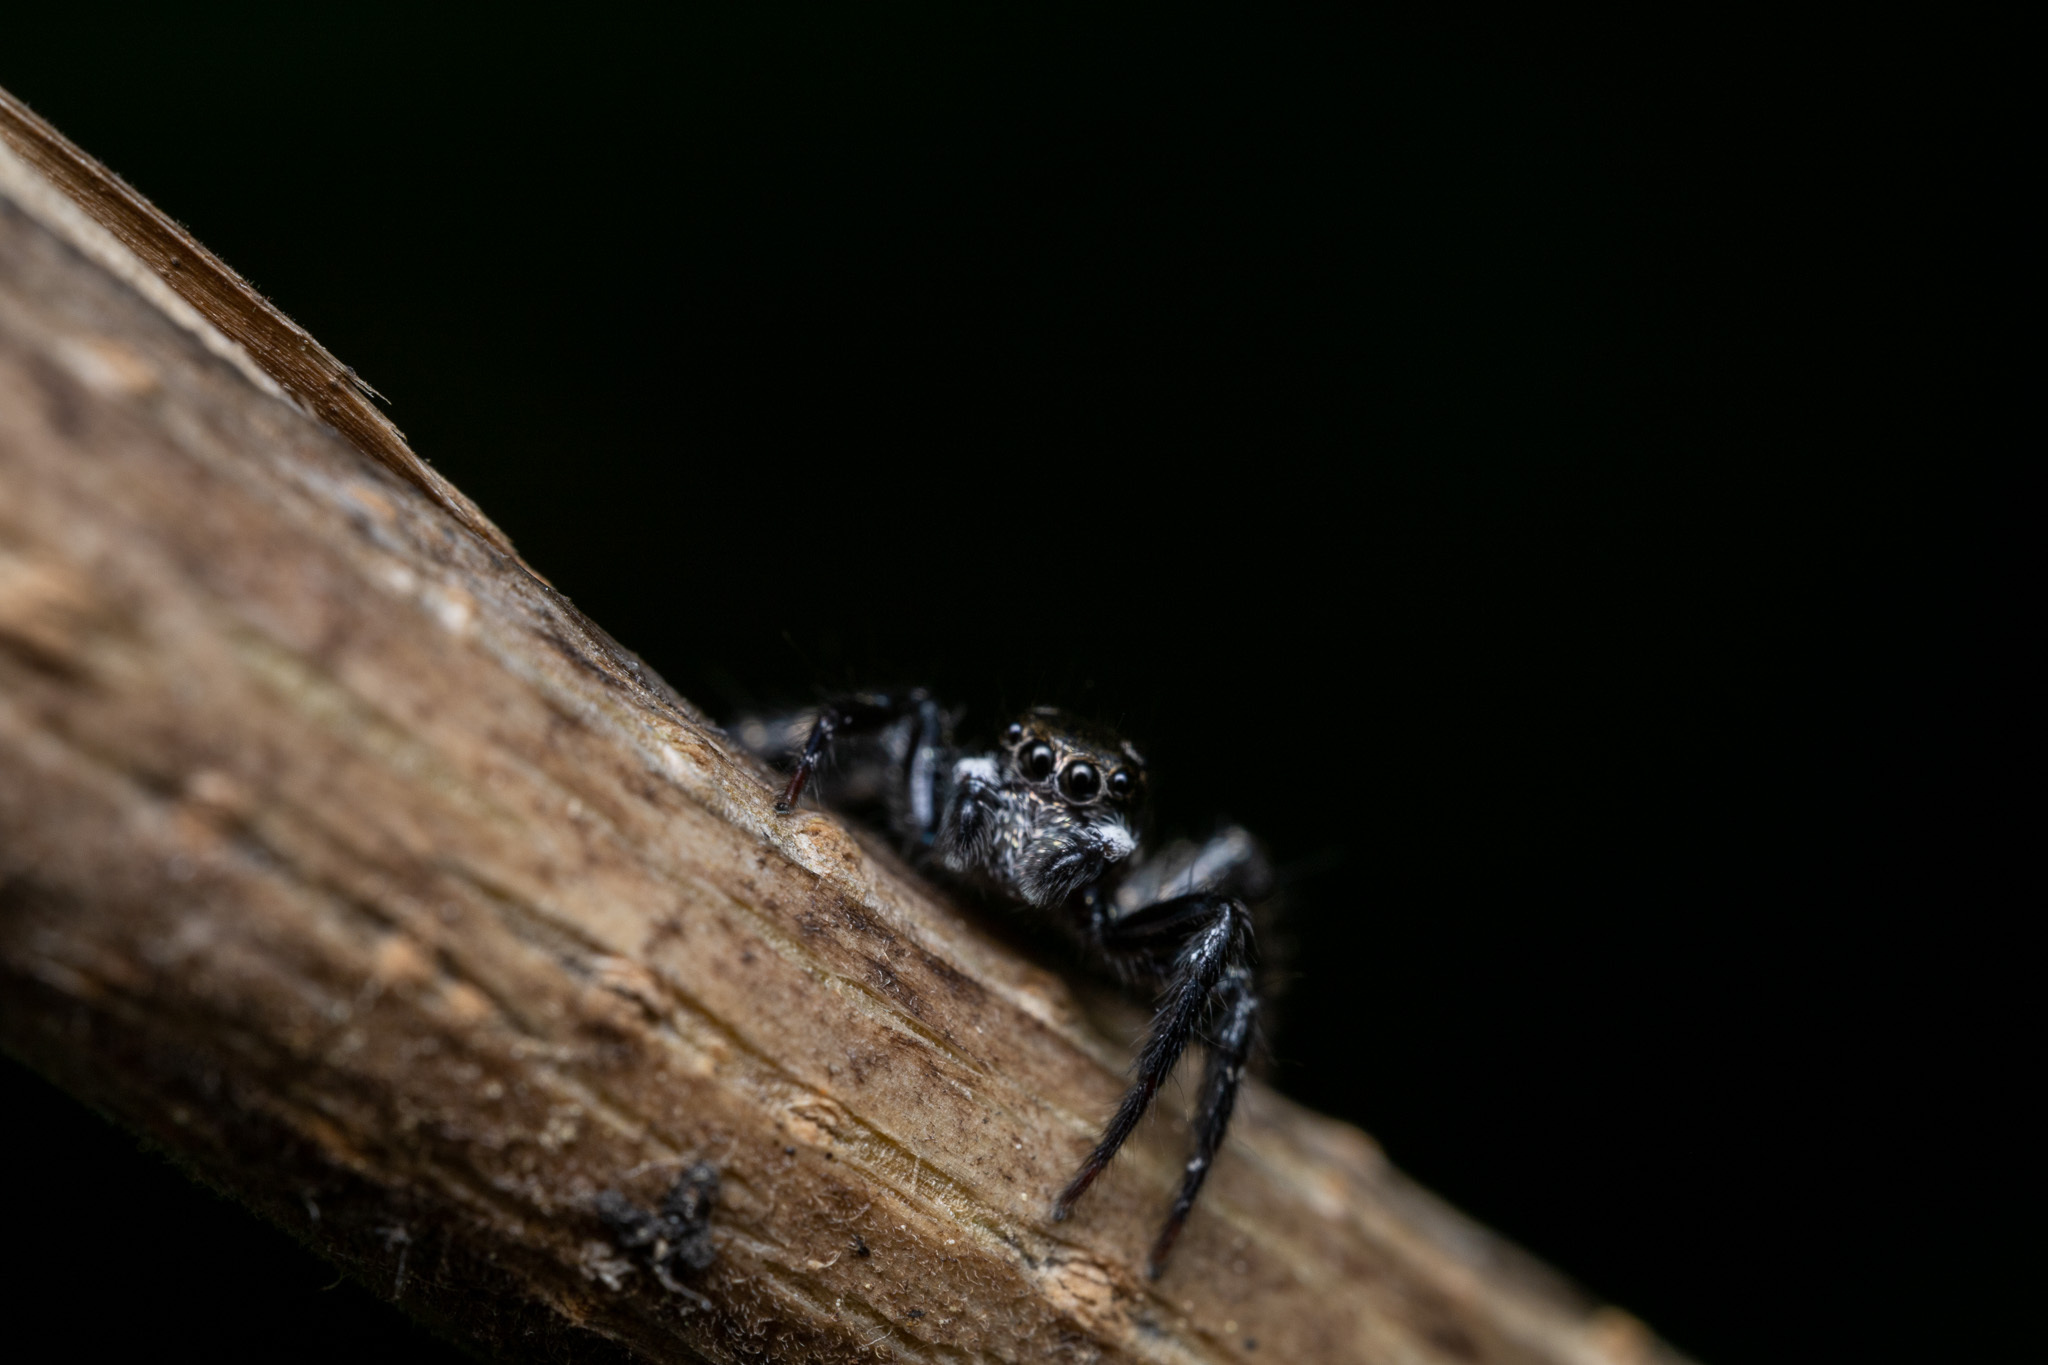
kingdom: Animalia
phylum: Arthropoda
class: Arachnida
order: Araneae
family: Salticidae
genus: Anasaitis
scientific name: Anasaitis canosa
